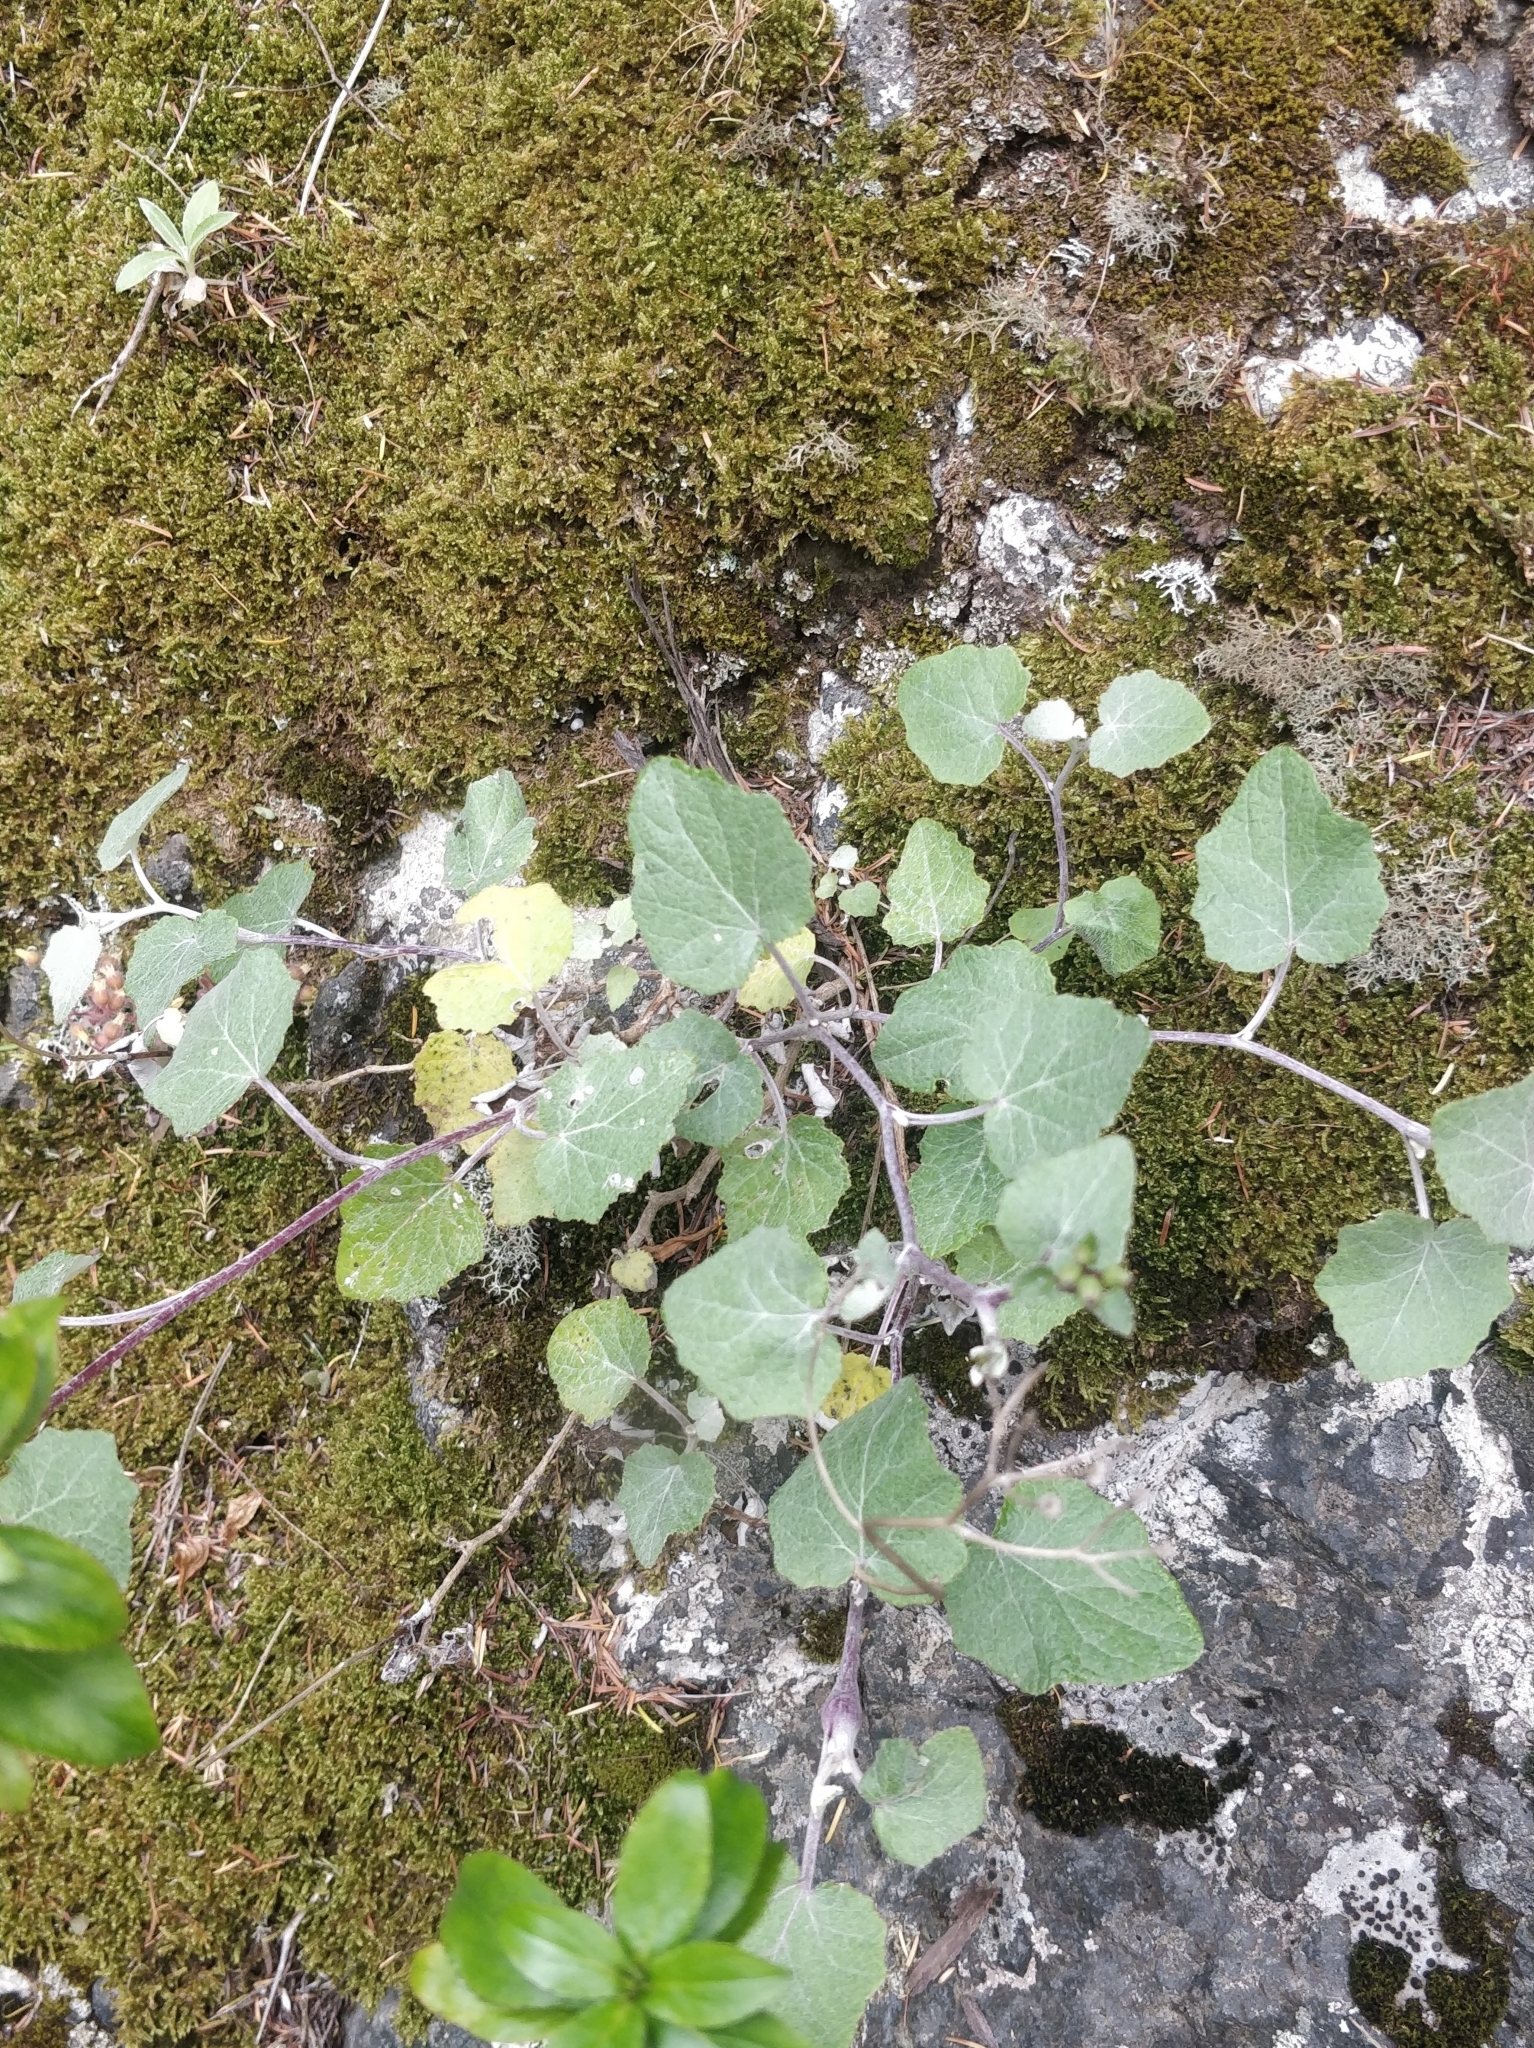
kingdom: Plantae
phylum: Tracheophyta
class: Magnoliopsida
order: Asterales
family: Asteraceae
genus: Pericallis
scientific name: Pericallis aurita
